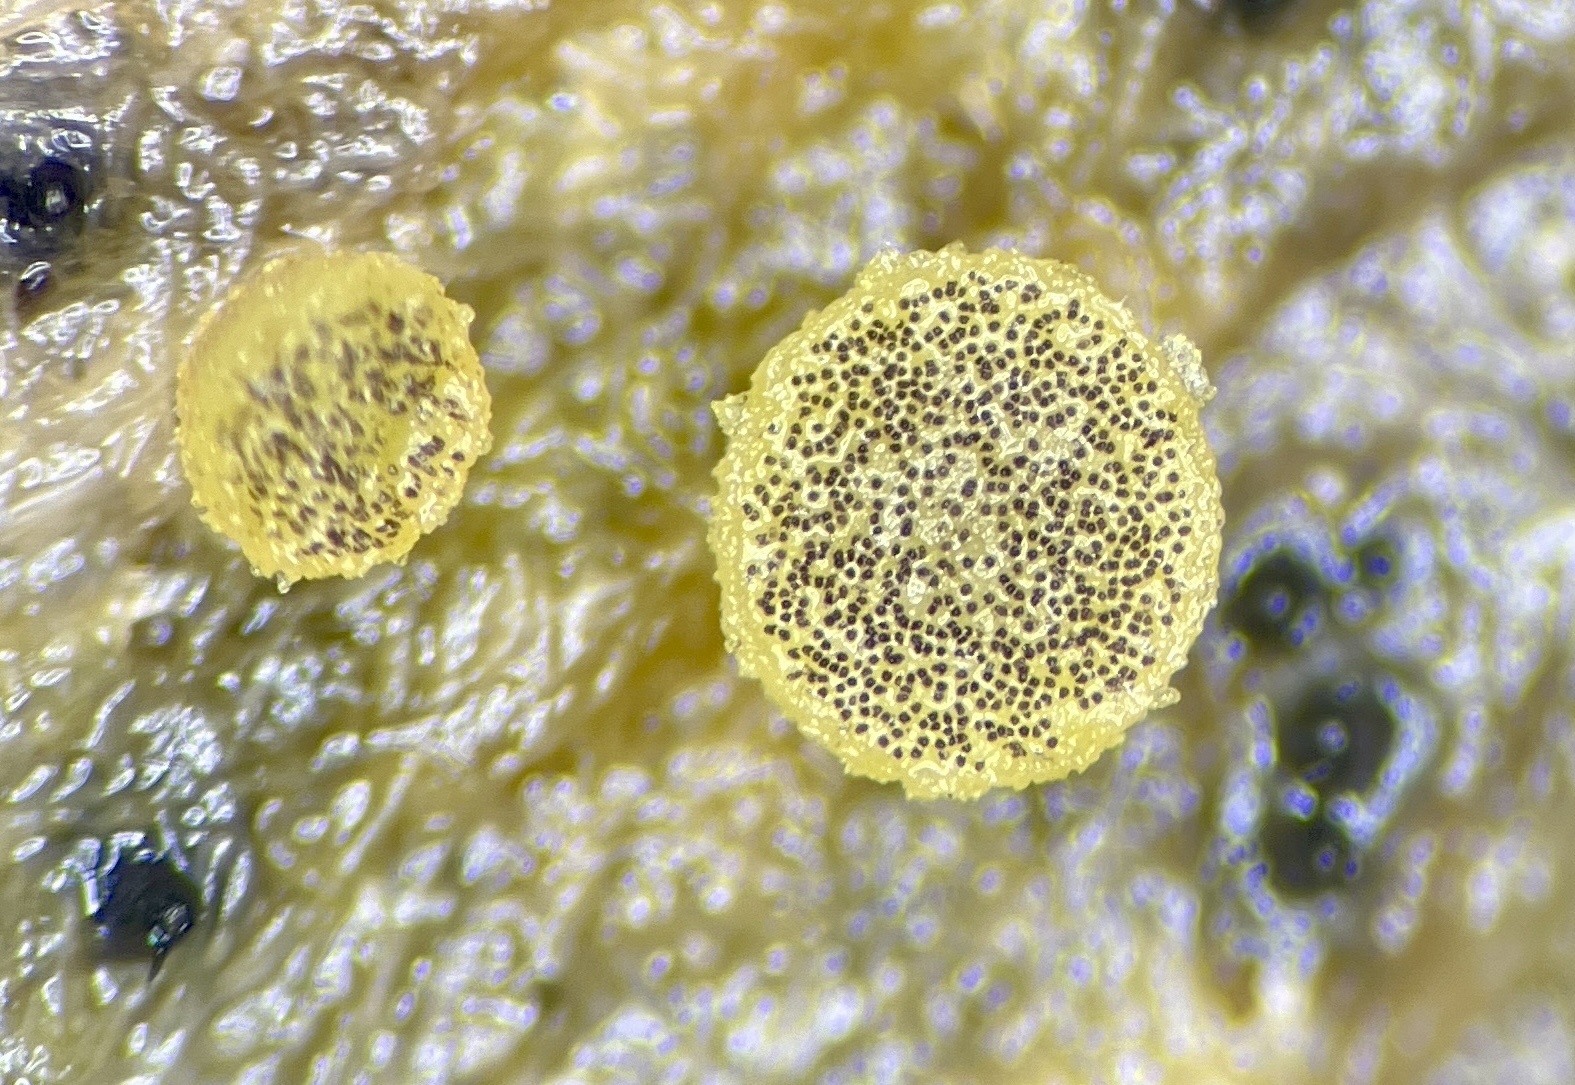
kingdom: Fungi
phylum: Ascomycota
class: Pezizomycetes
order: Pezizales
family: Ascobolaceae
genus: Ascobolus
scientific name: Ascobolus crenulatus
